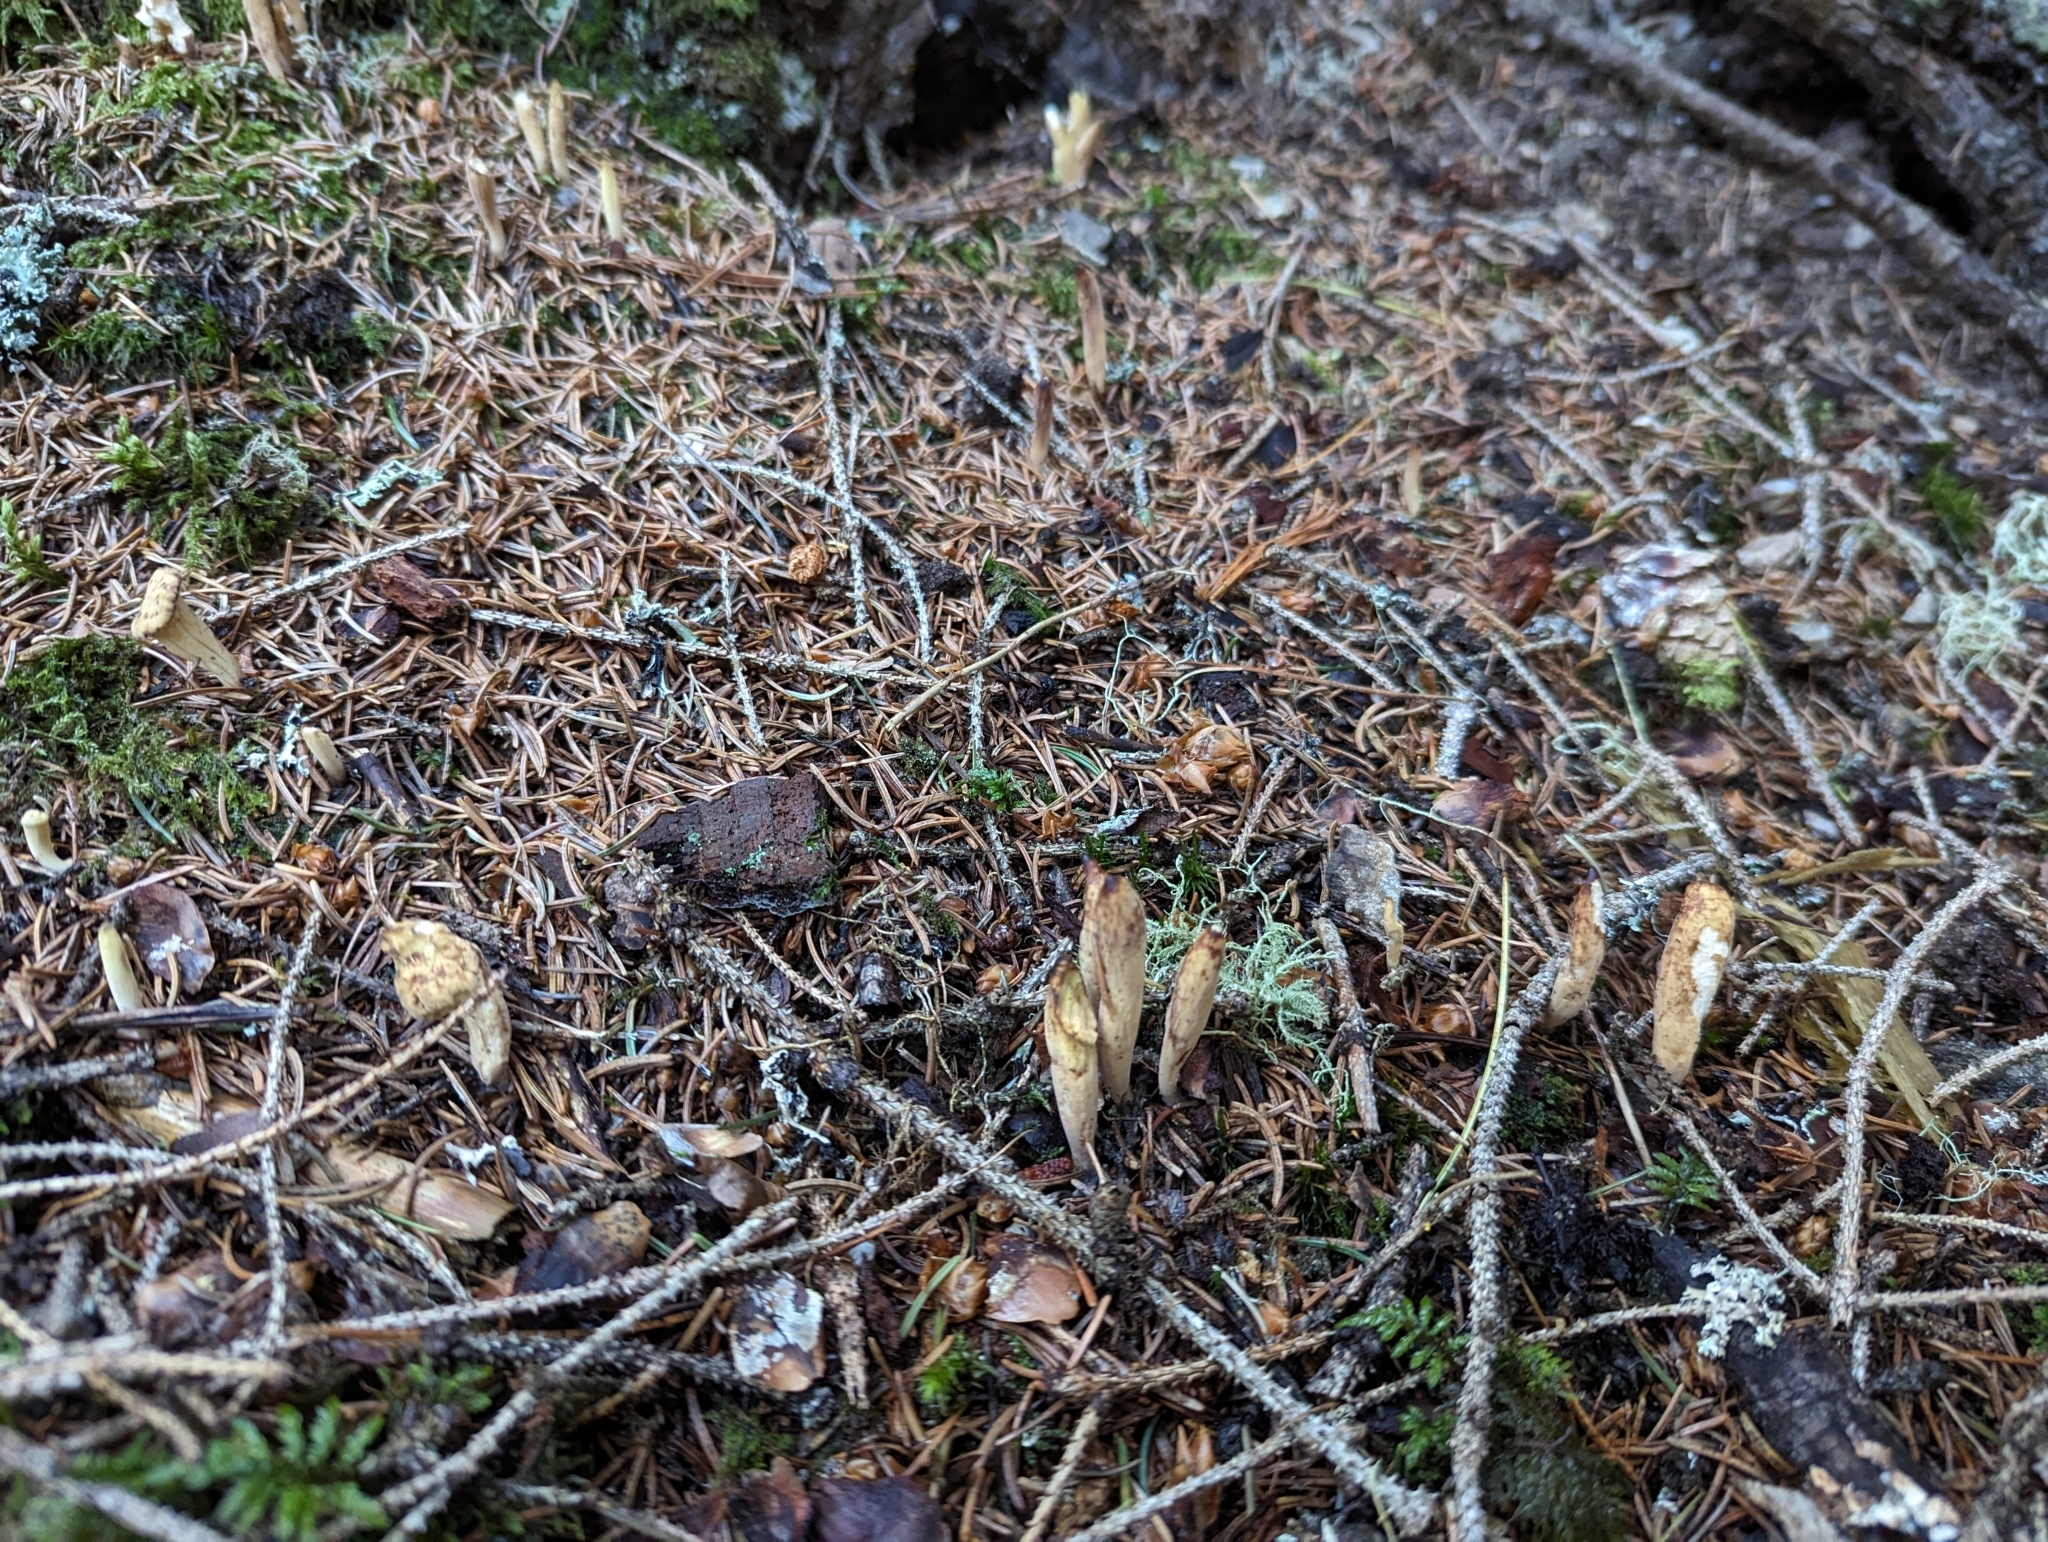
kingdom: Fungi
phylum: Basidiomycota
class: Agaricomycetes
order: Gomphales
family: Clavariadelphaceae
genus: Clavariadelphus
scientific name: Clavariadelphus ligula
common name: Ochre club
